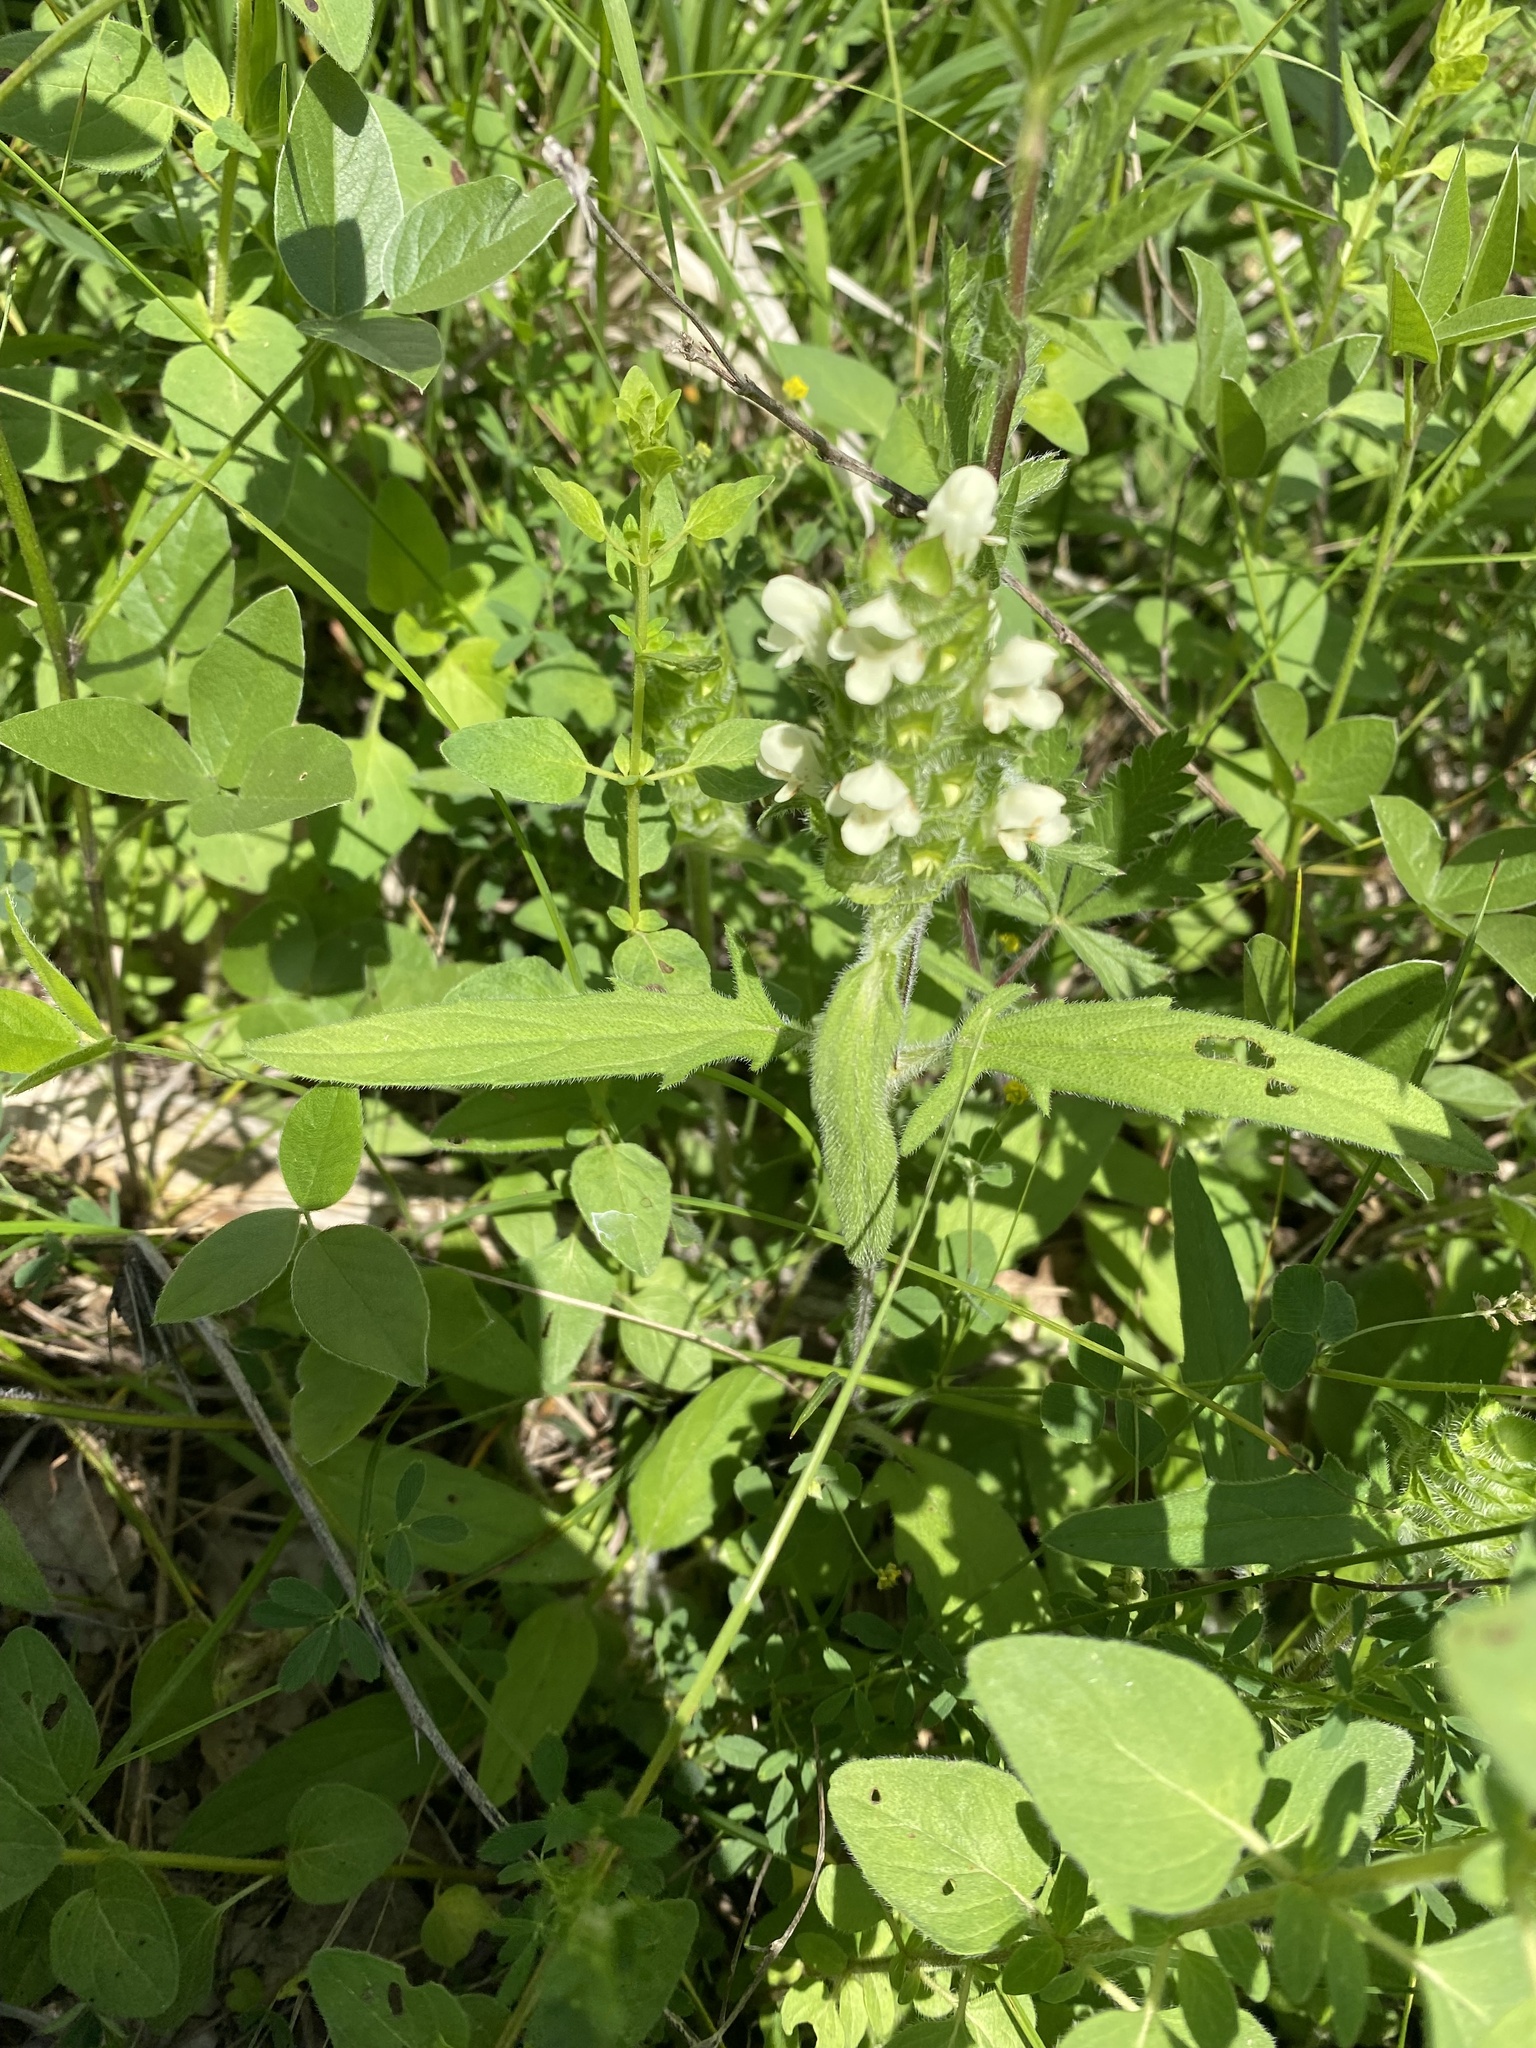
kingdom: Plantae
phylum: Tracheophyta
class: Magnoliopsida
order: Lamiales
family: Lamiaceae
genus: Prunella
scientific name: Prunella laciniata
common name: Cut-leaved selfheal
